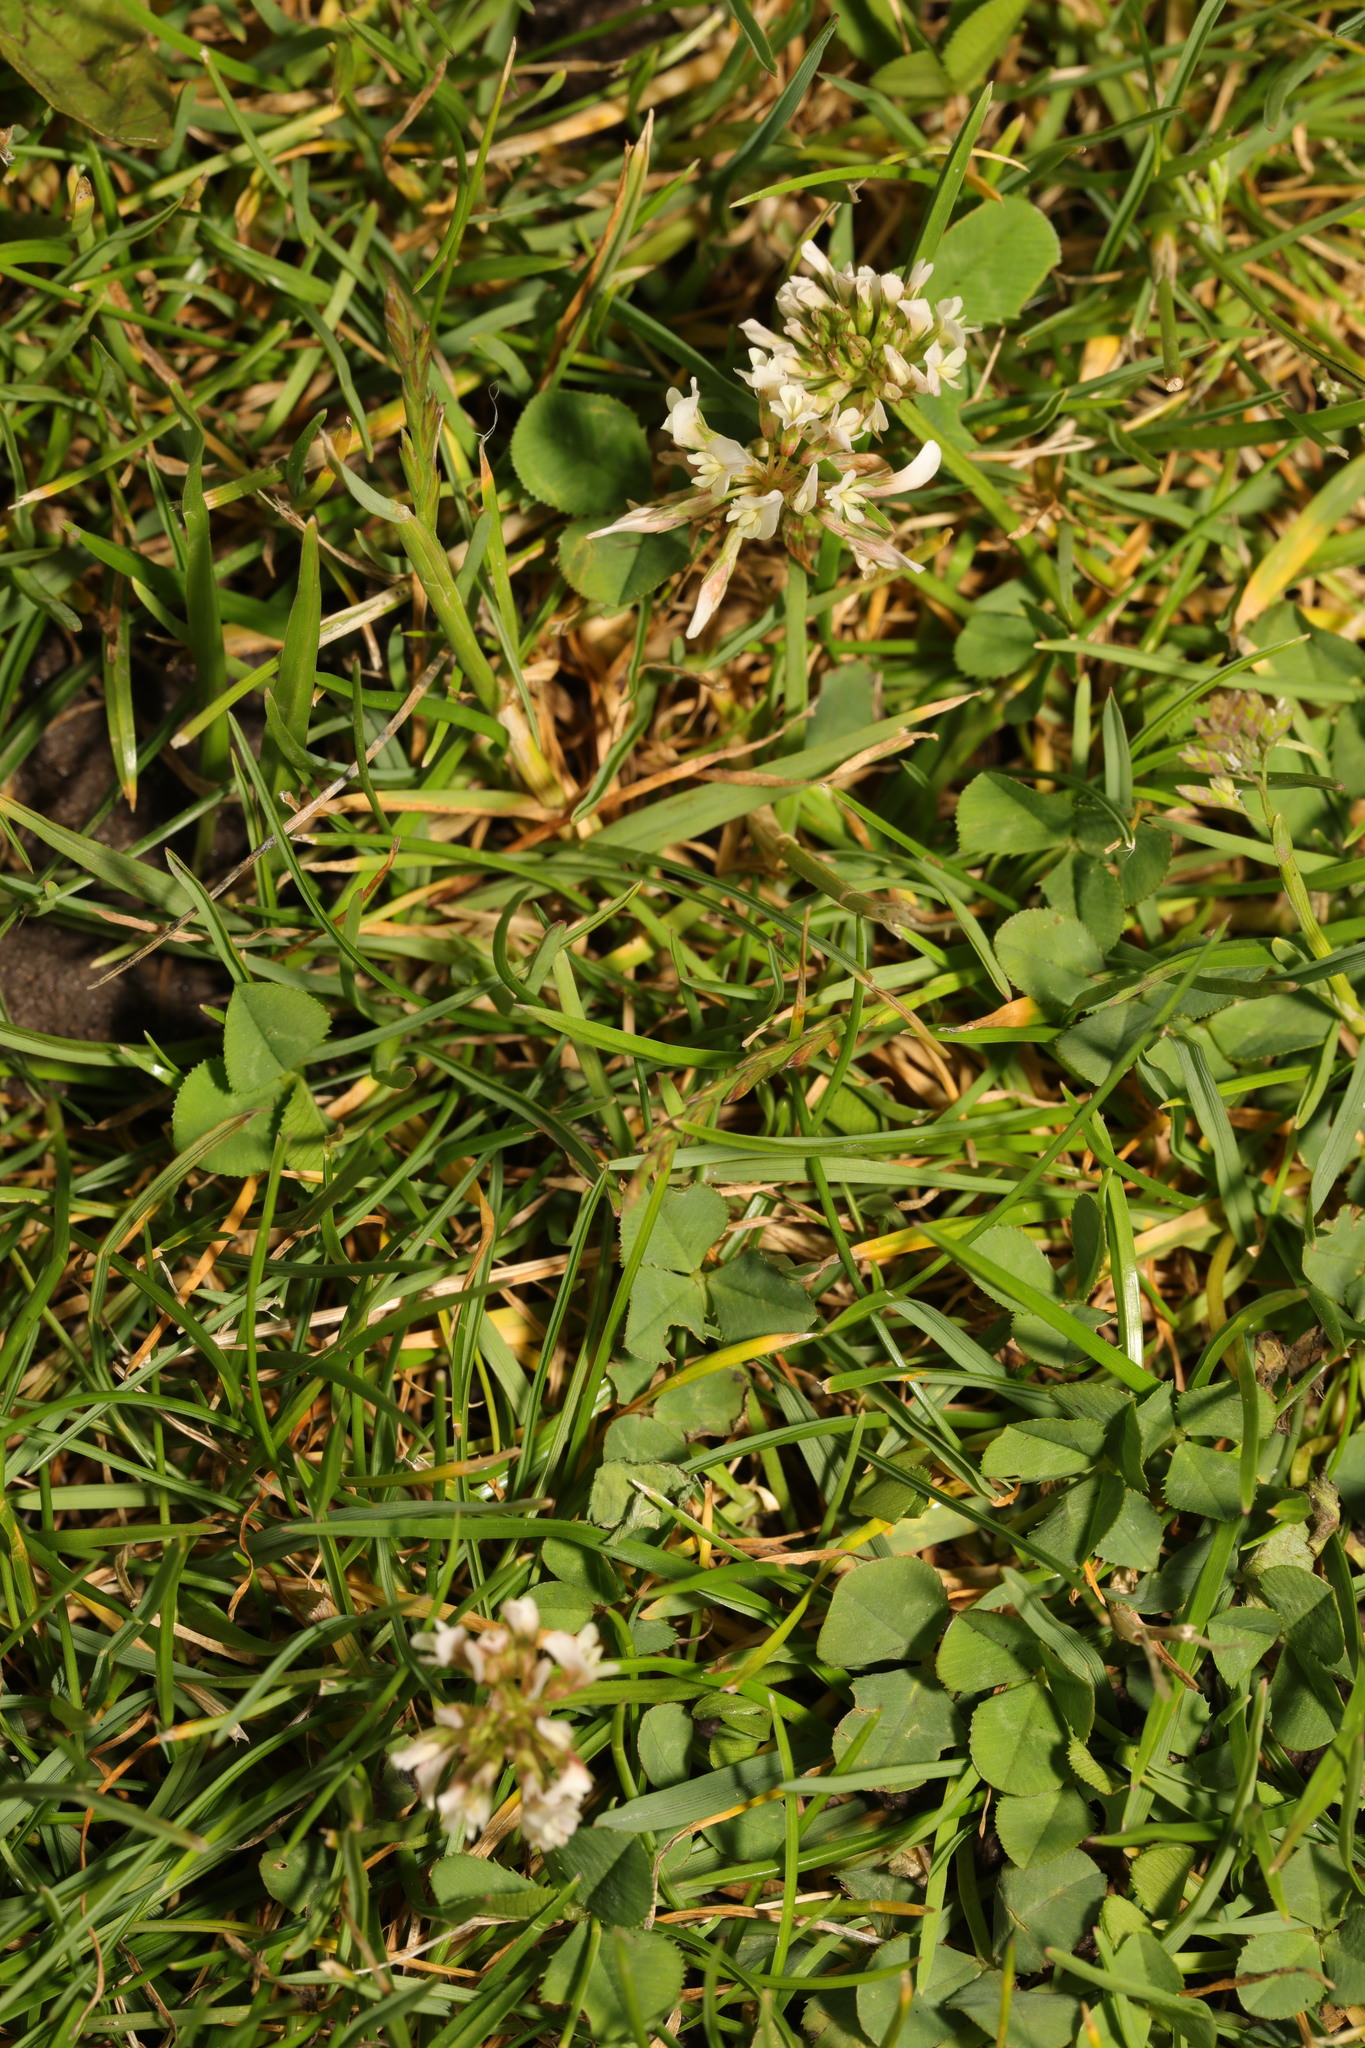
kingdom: Plantae
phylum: Tracheophyta
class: Magnoliopsida
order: Fabales
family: Fabaceae
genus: Trifolium
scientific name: Trifolium repens
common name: White clover
